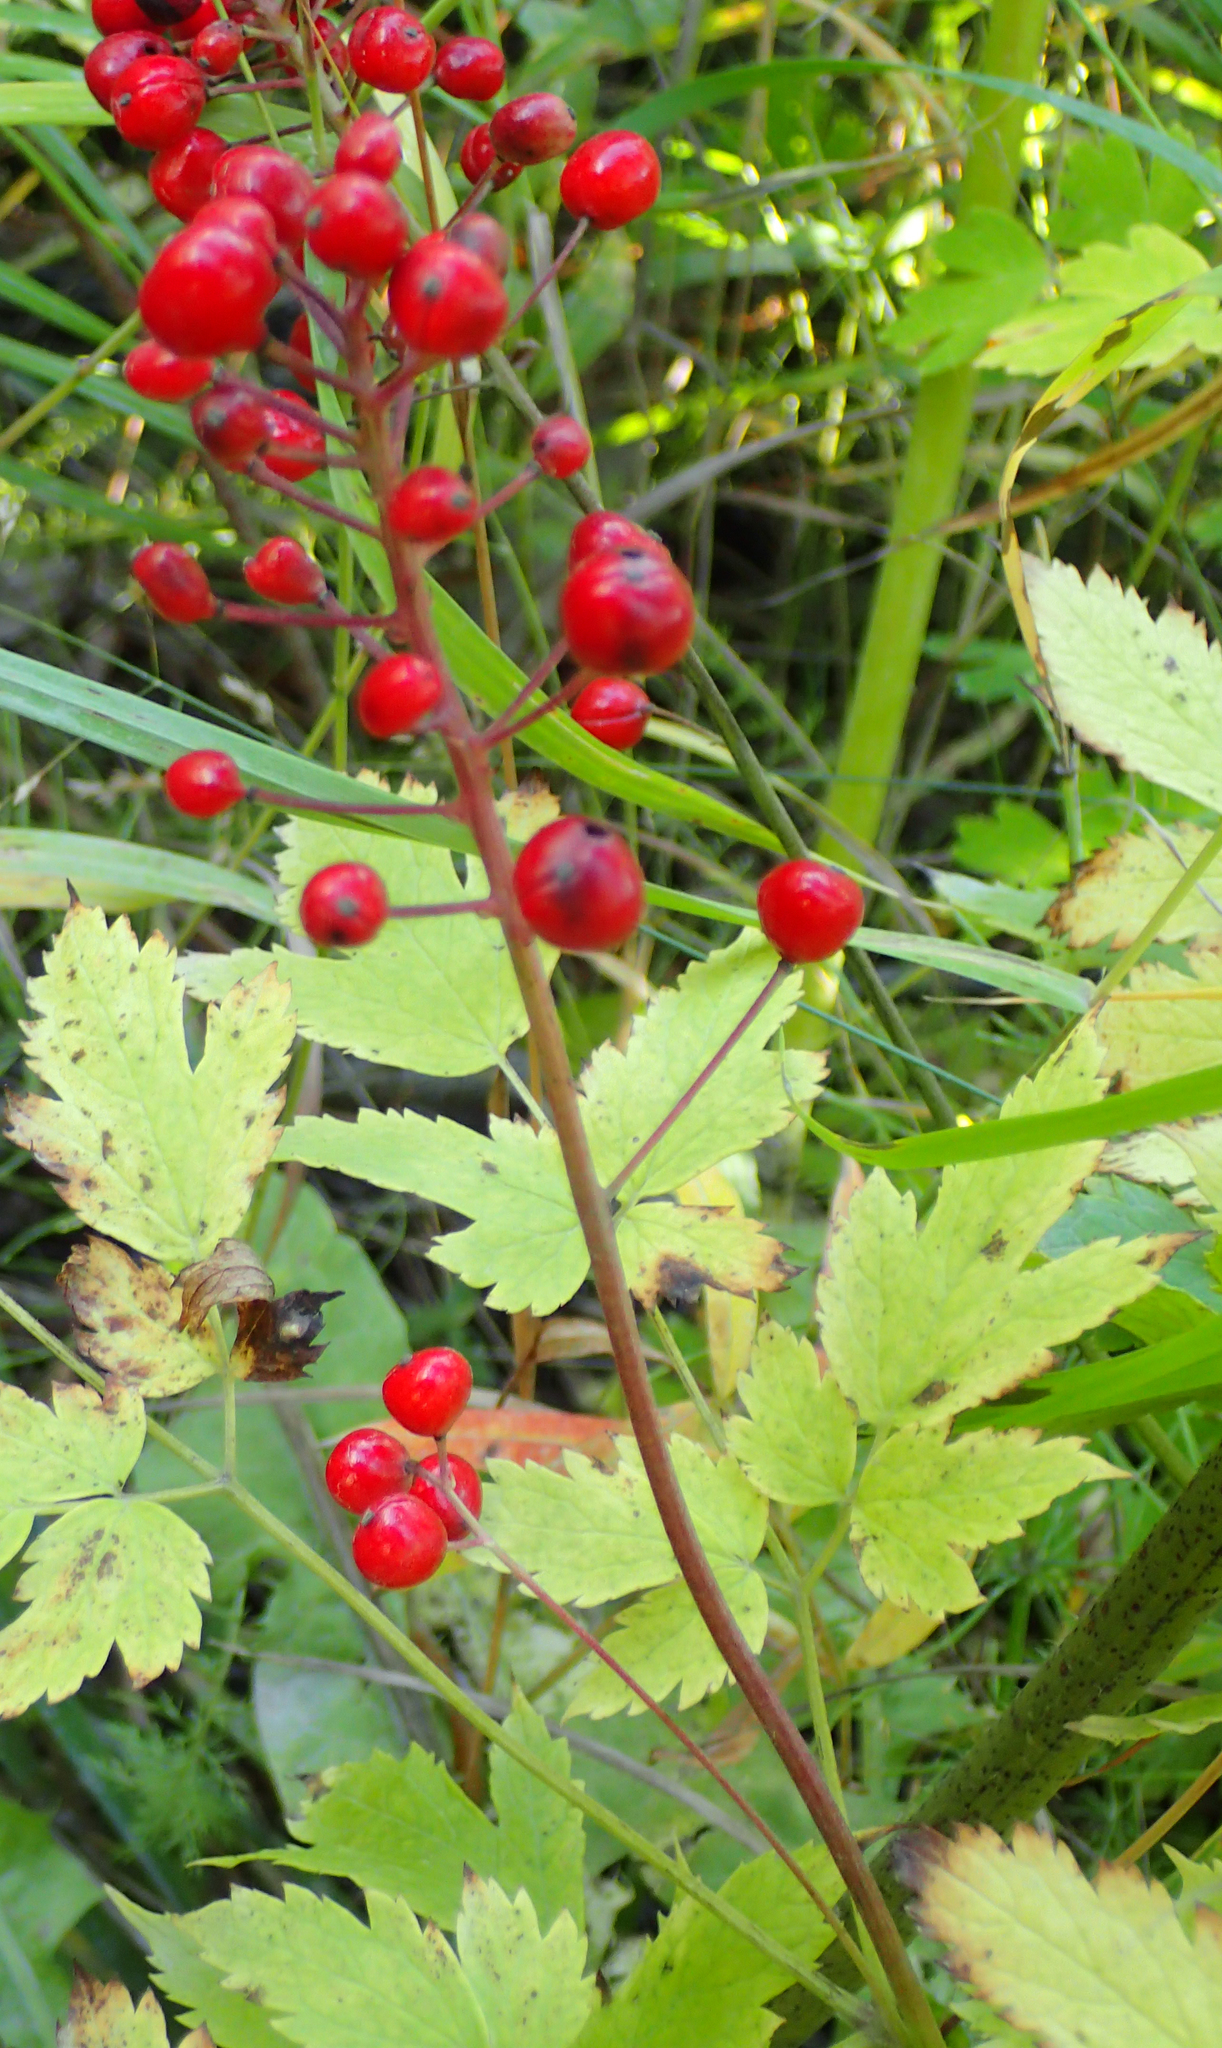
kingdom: Plantae
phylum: Tracheophyta
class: Magnoliopsida
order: Ranunculales
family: Ranunculaceae
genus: Actaea
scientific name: Actaea rubra
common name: Red baneberry
